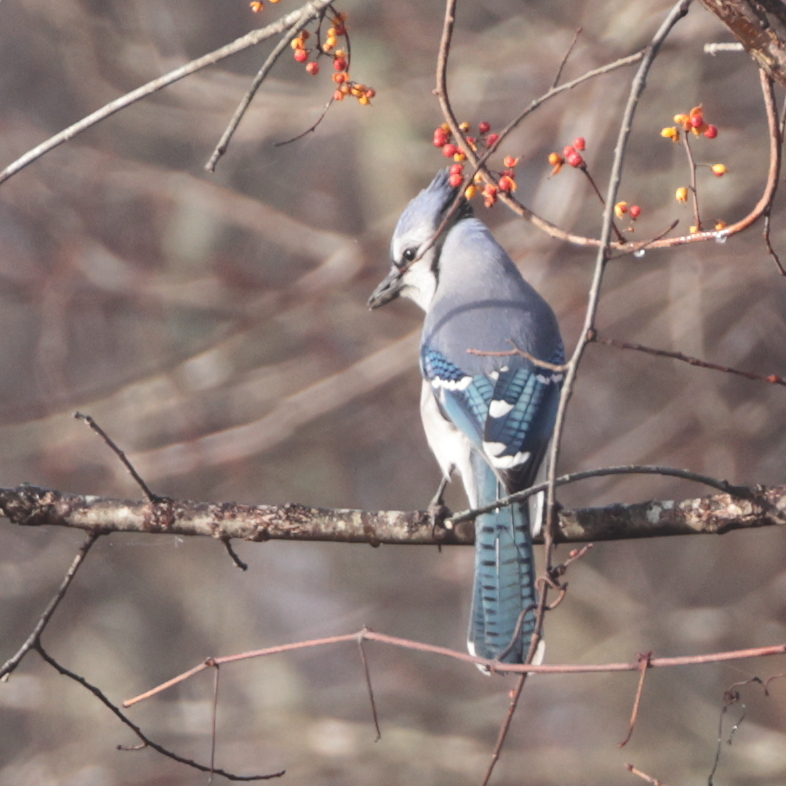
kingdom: Animalia
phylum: Chordata
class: Aves
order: Passeriformes
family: Corvidae
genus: Cyanocitta
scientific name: Cyanocitta cristata
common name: Blue jay
